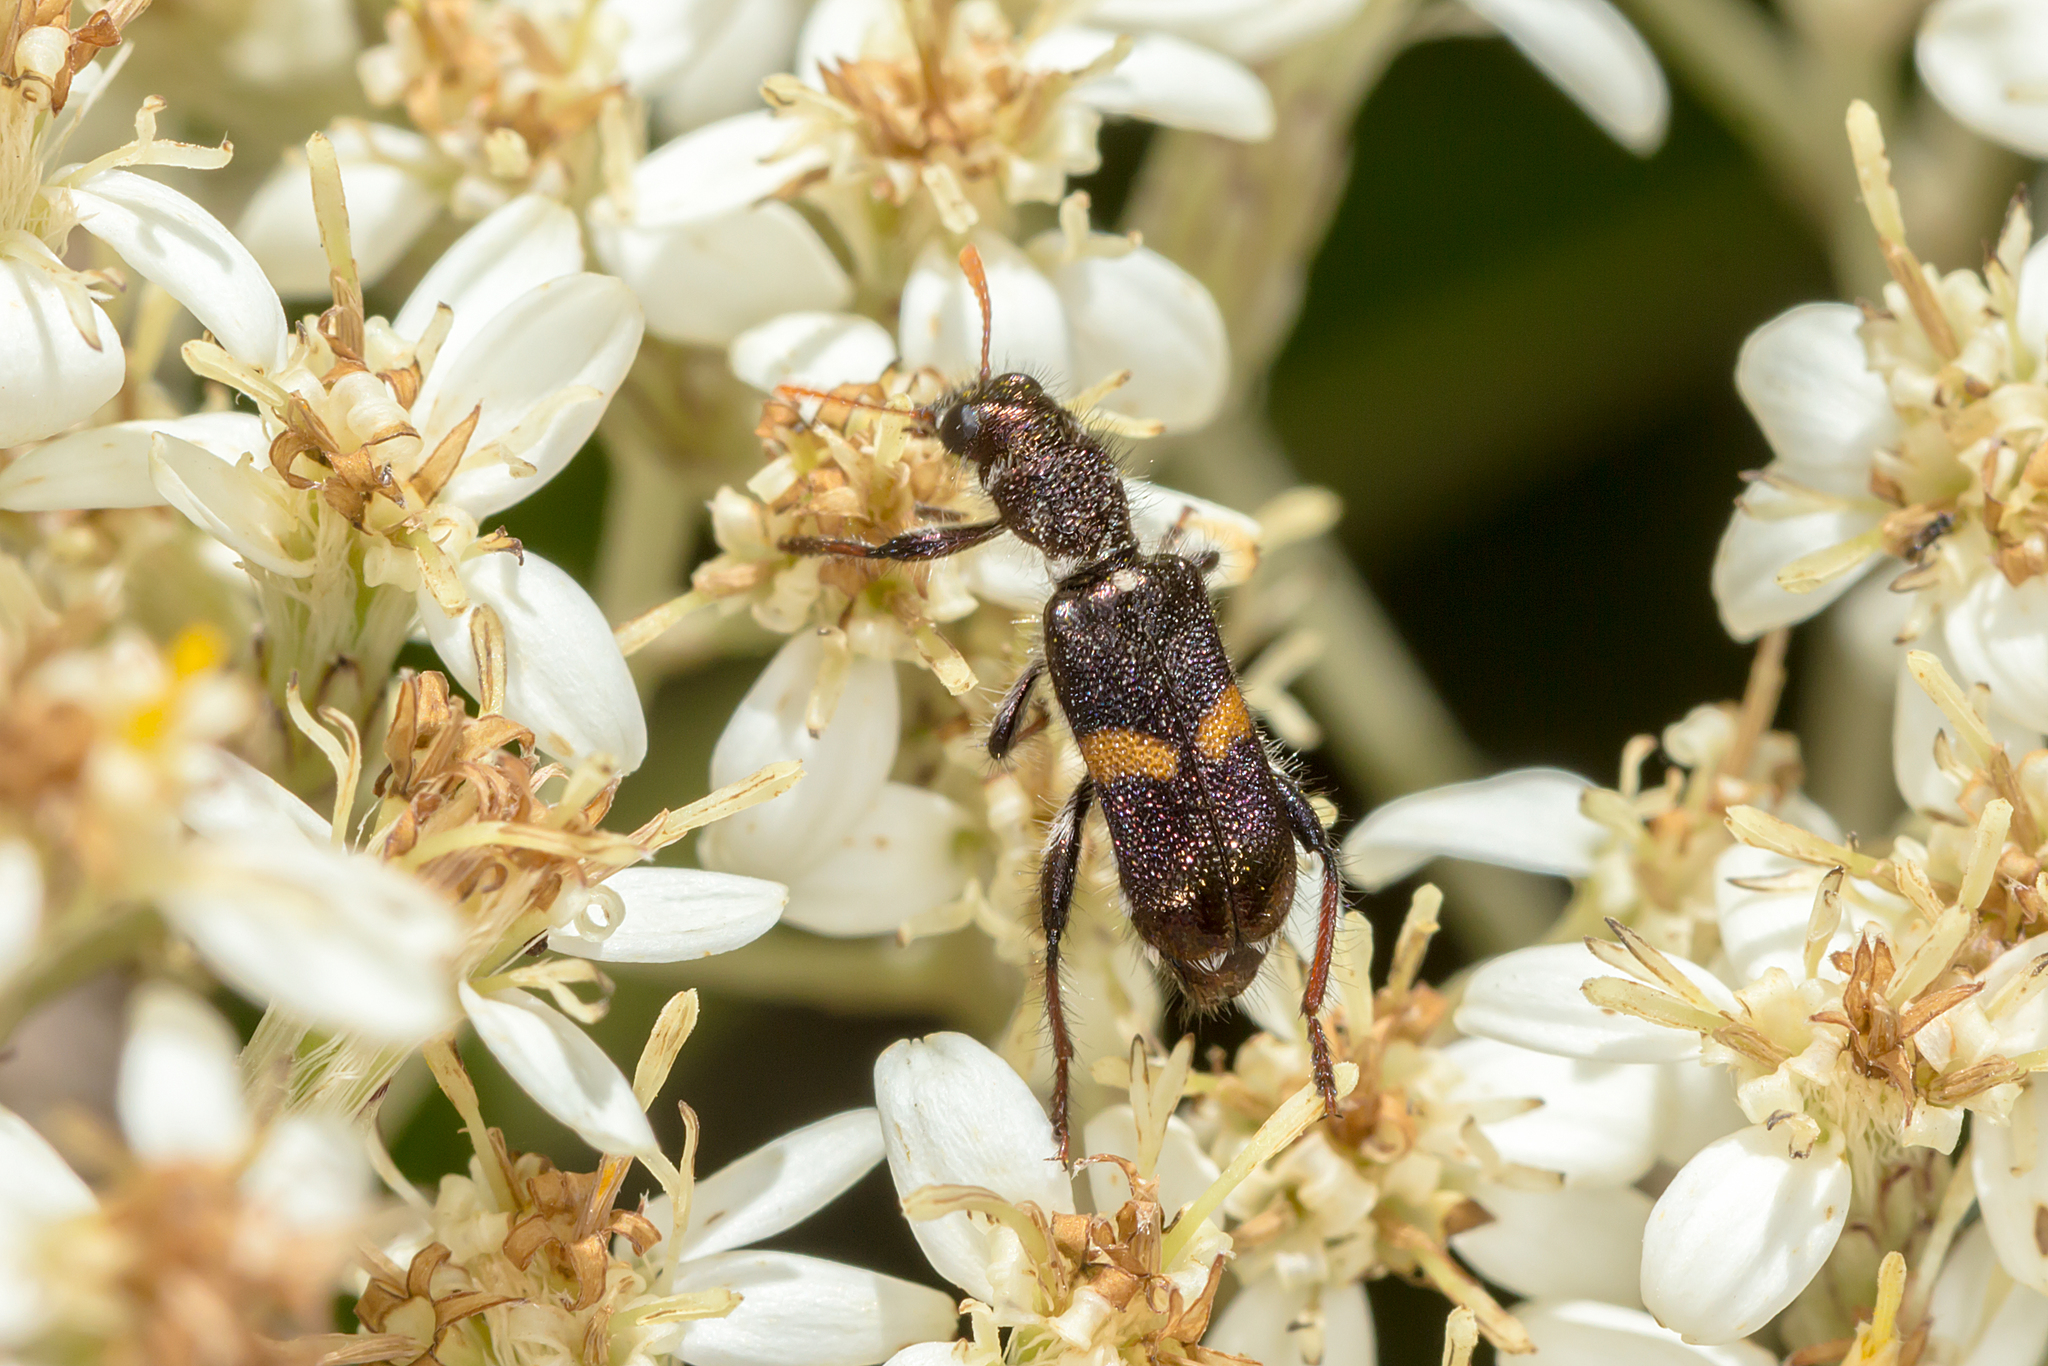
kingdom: Animalia
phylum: Arthropoda
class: Insecta
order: Coleoptera
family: Cleridae
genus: Eleale
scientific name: Eleale
